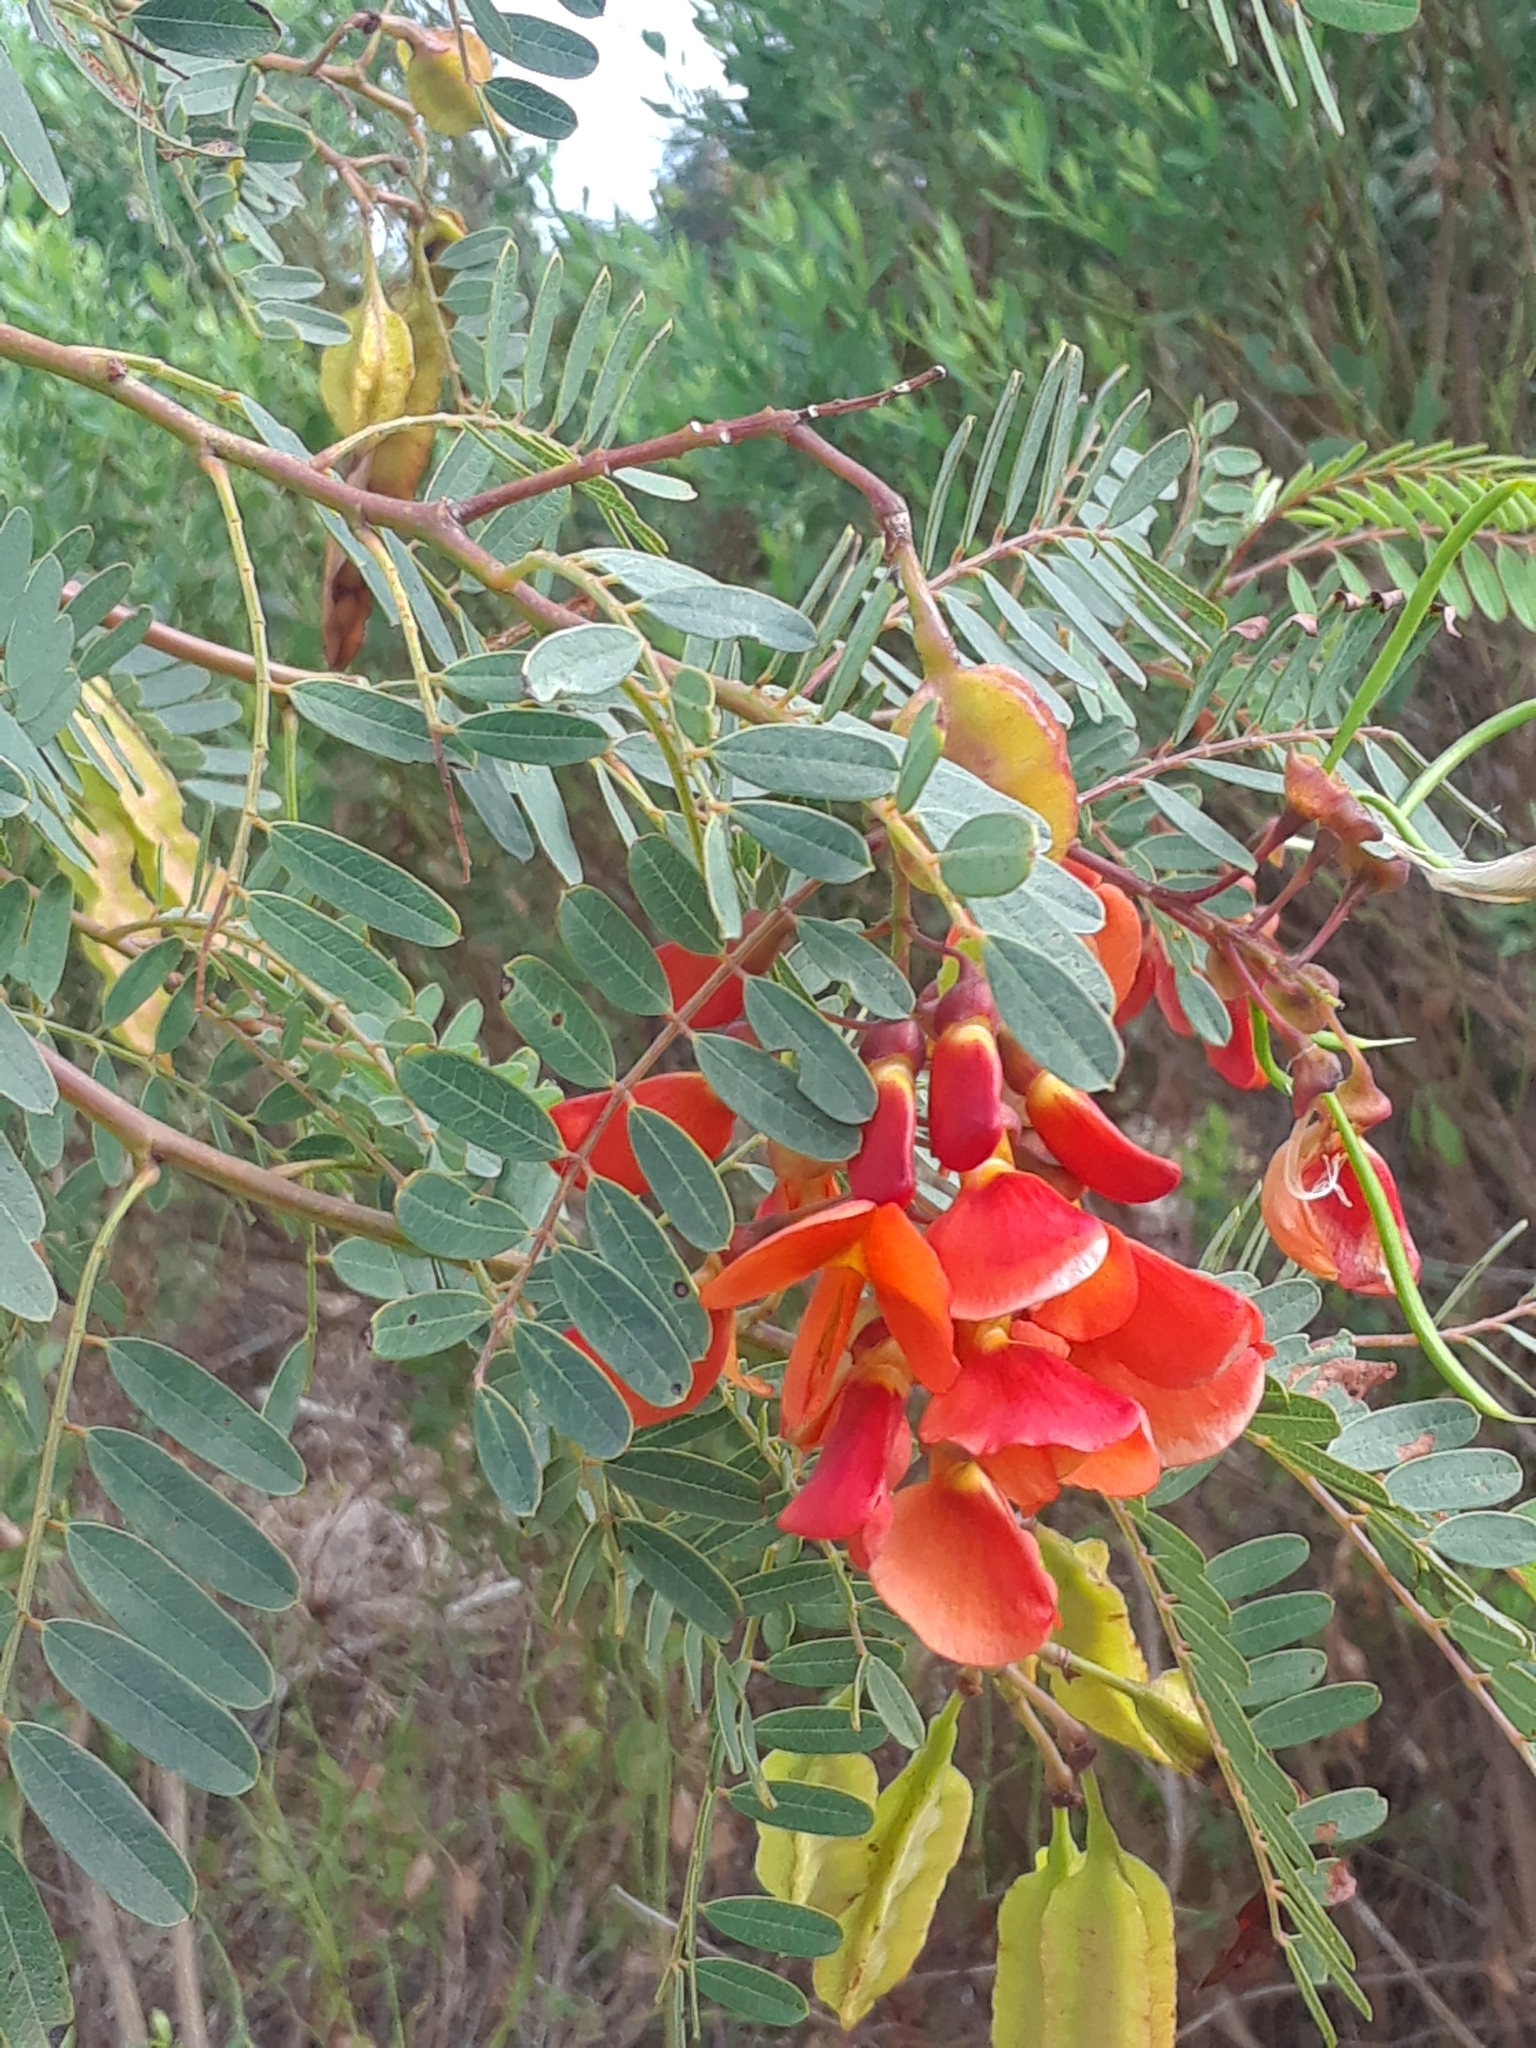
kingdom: Plantae
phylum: Tracheophyta
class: Magnoliopsida
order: Fabales
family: Fabaceae
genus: Sesbania
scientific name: Sesbania punicea
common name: Rattlebox
